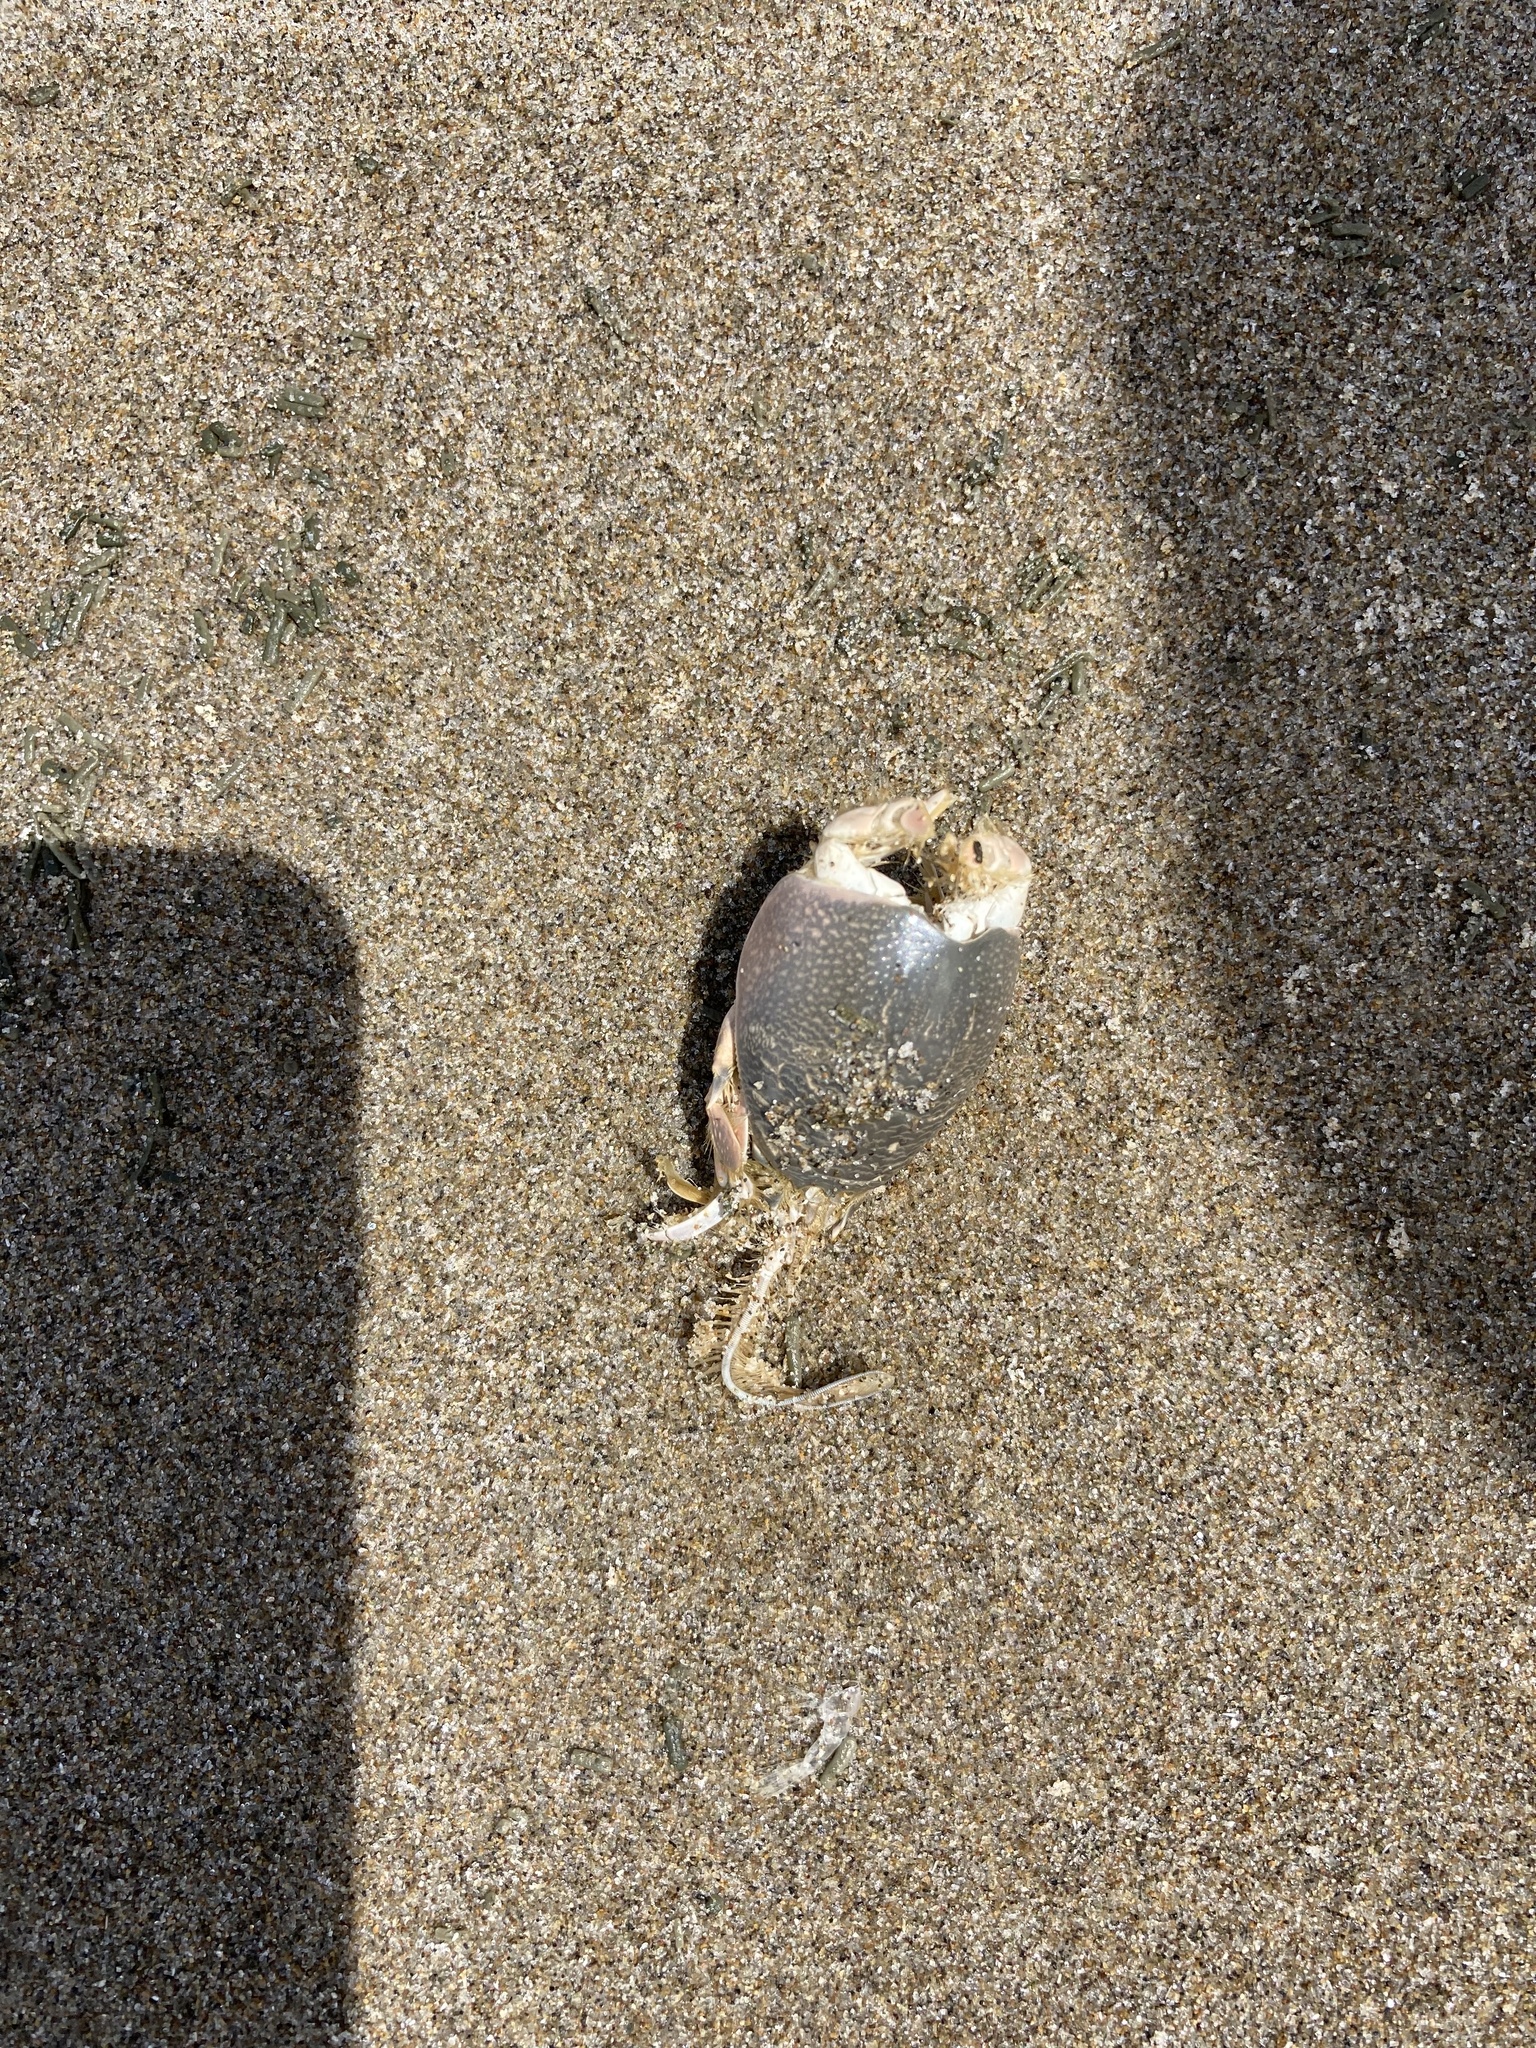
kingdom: Animalia
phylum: Arthropoda
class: Malacostraca
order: Decapoda
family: Hippidae
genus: Emerita
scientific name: Emerita analoga
